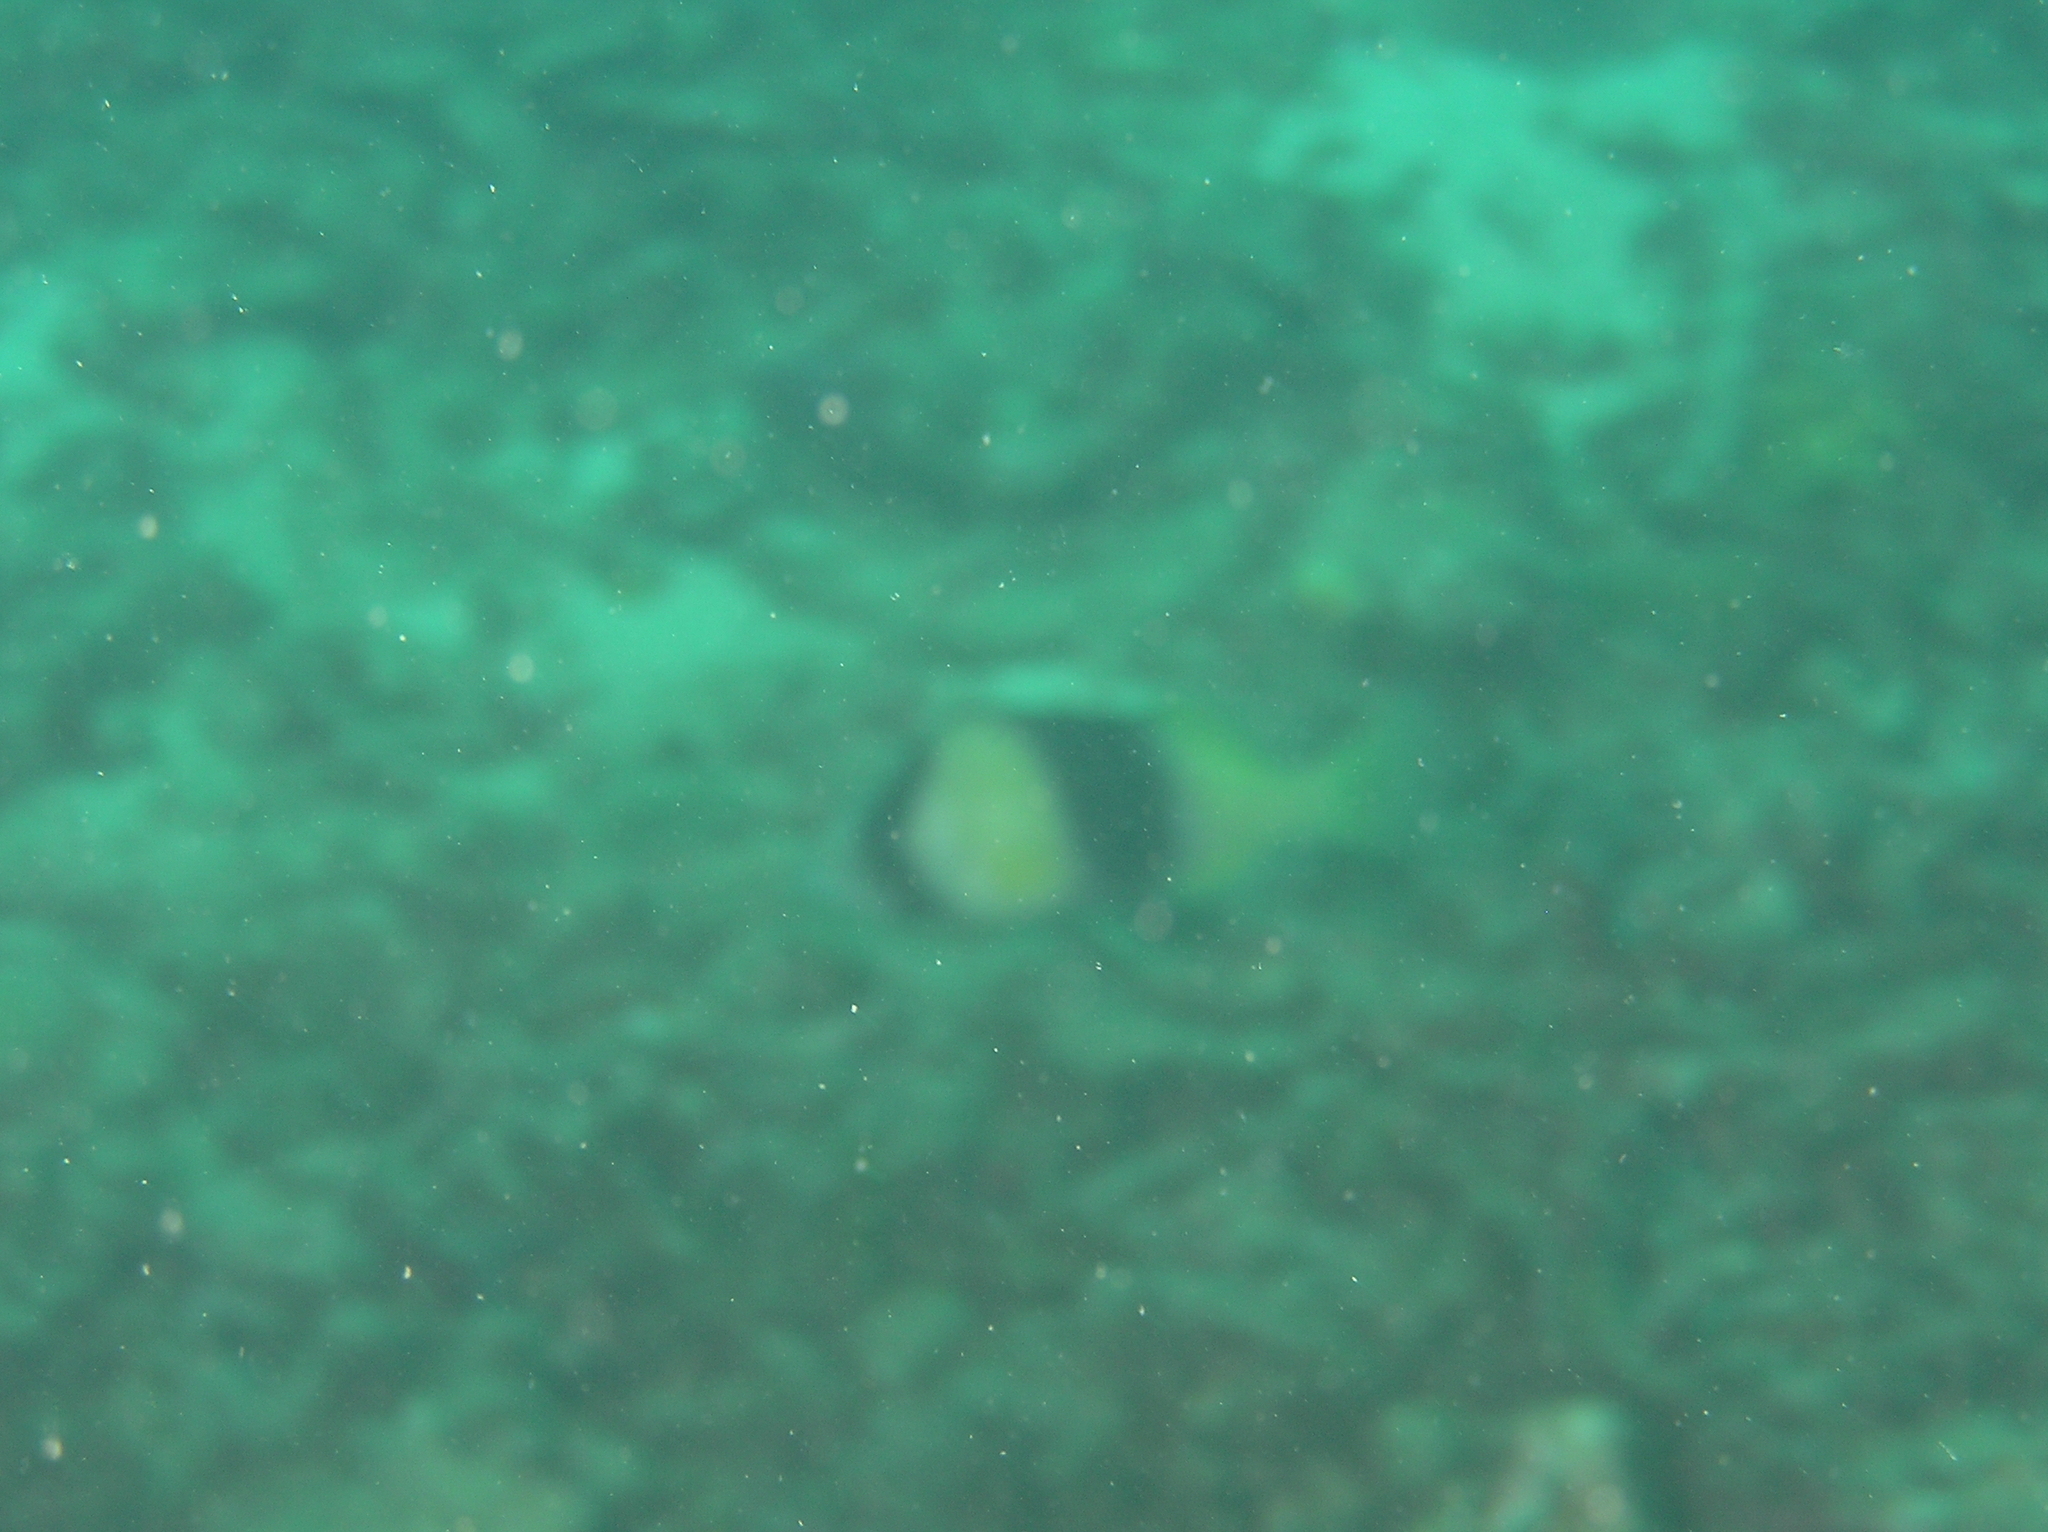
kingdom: Animalia
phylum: Chordata
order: Perciformes
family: Serranidae
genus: Diploprion
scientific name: Diploprion bifasciatum
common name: Barred soapfish
